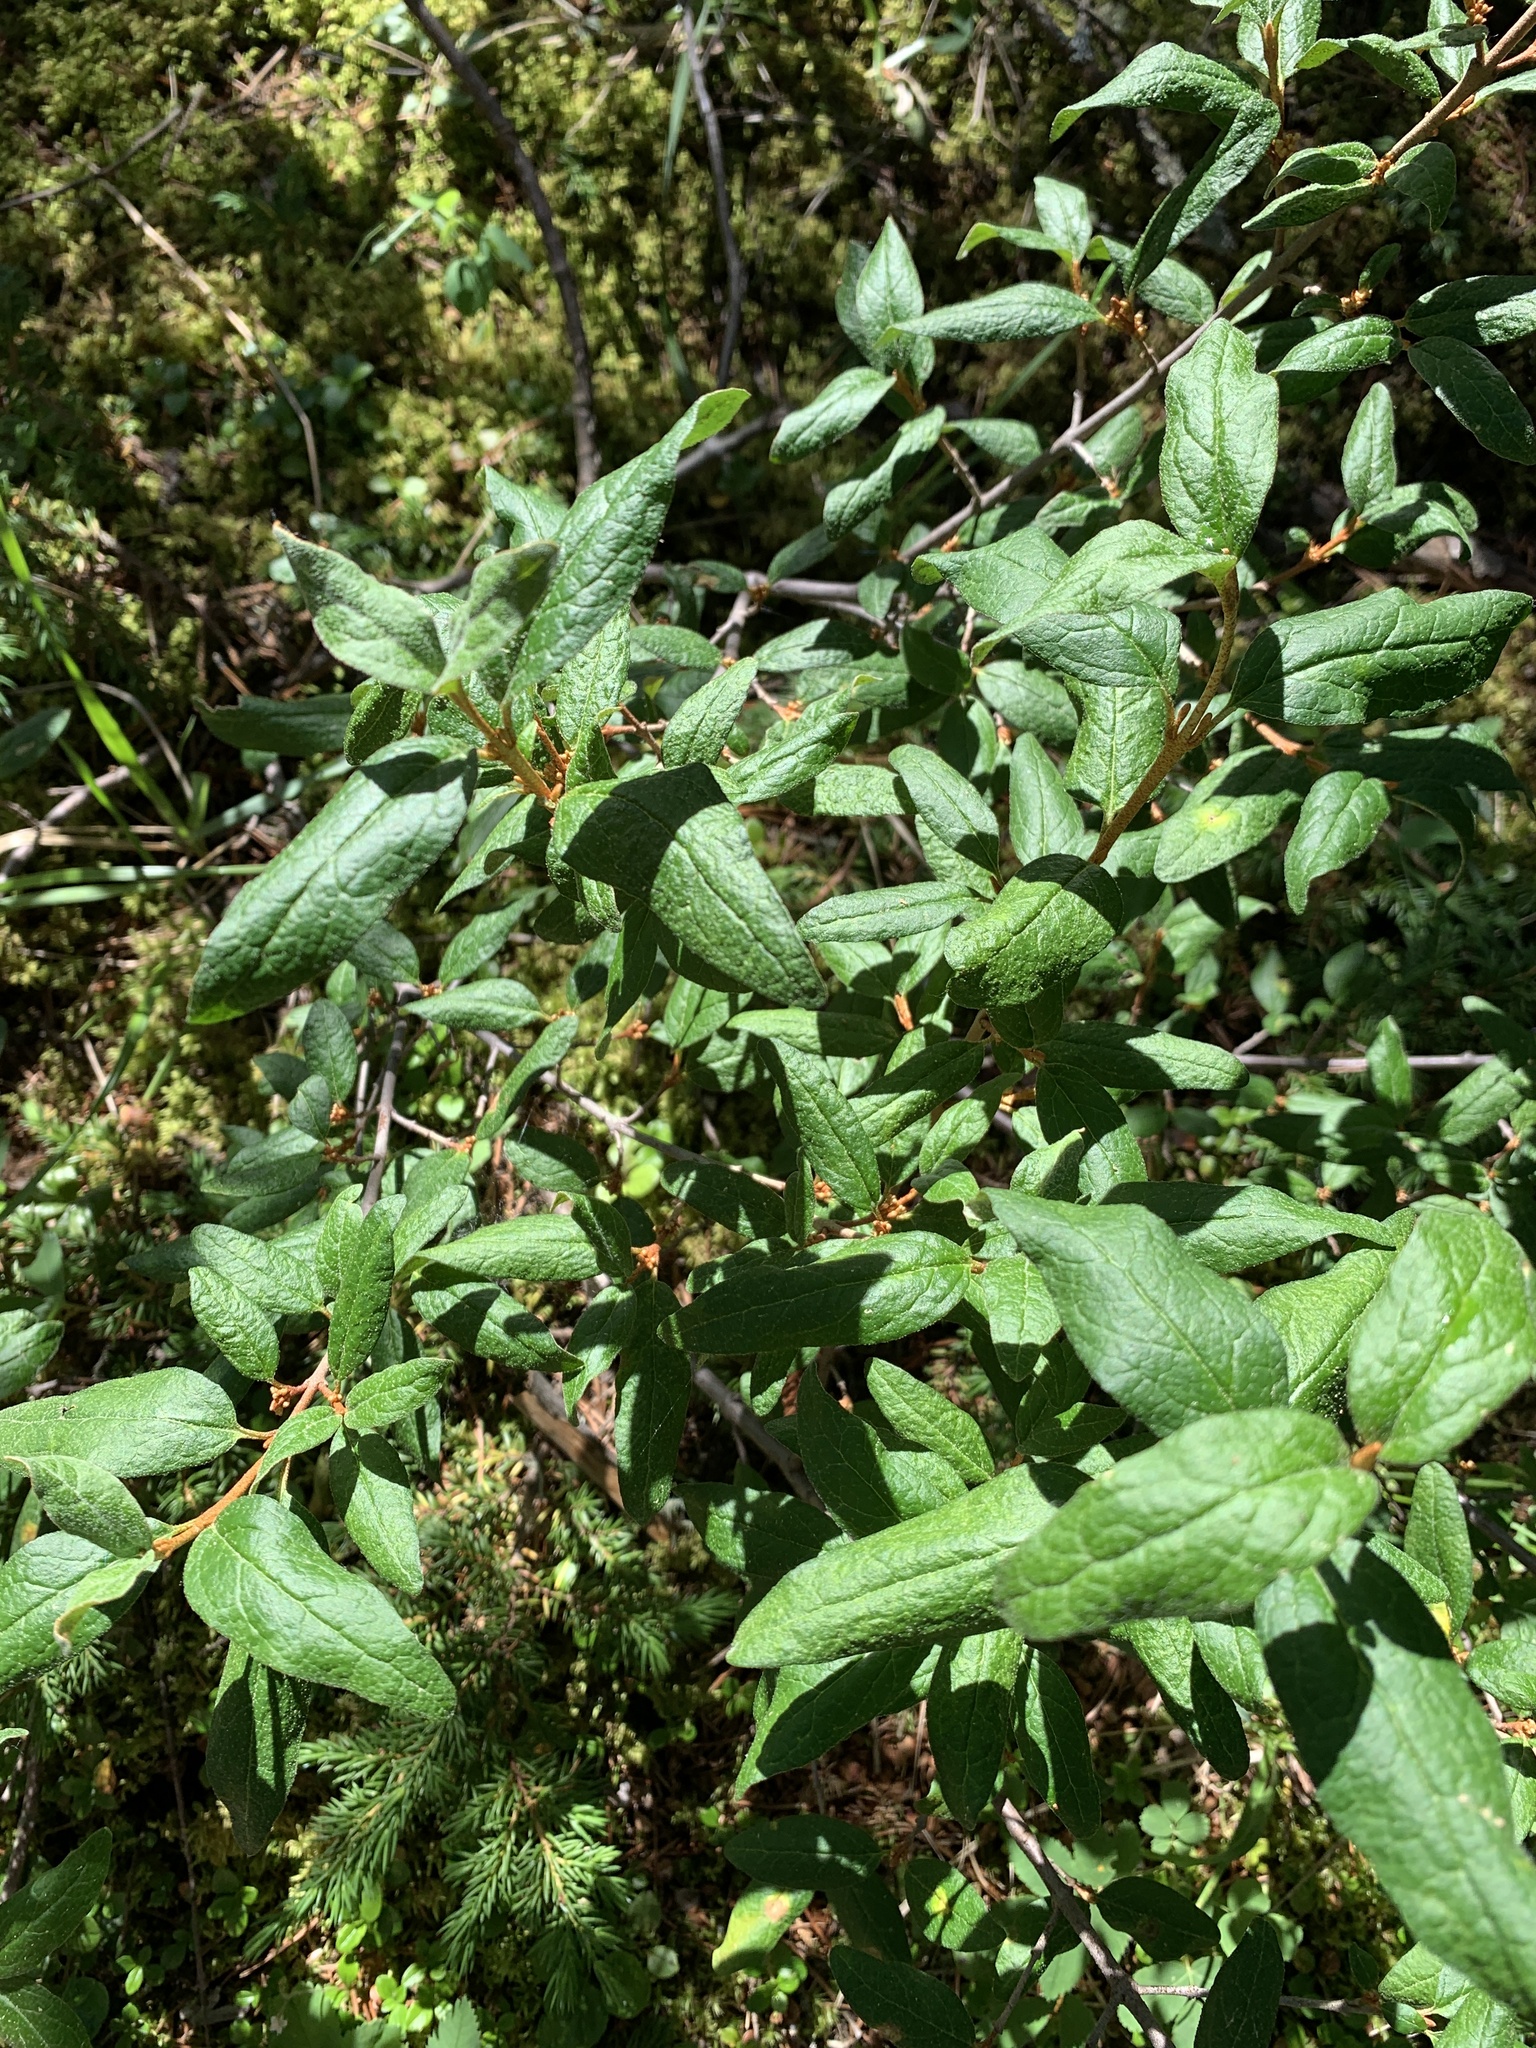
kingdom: Plantae
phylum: Tracheophyta
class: Magnoliopsida
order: Rosales
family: Elaeagnaceae
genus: Shepherdia
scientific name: Shepherdia canadensis
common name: Soapberry
